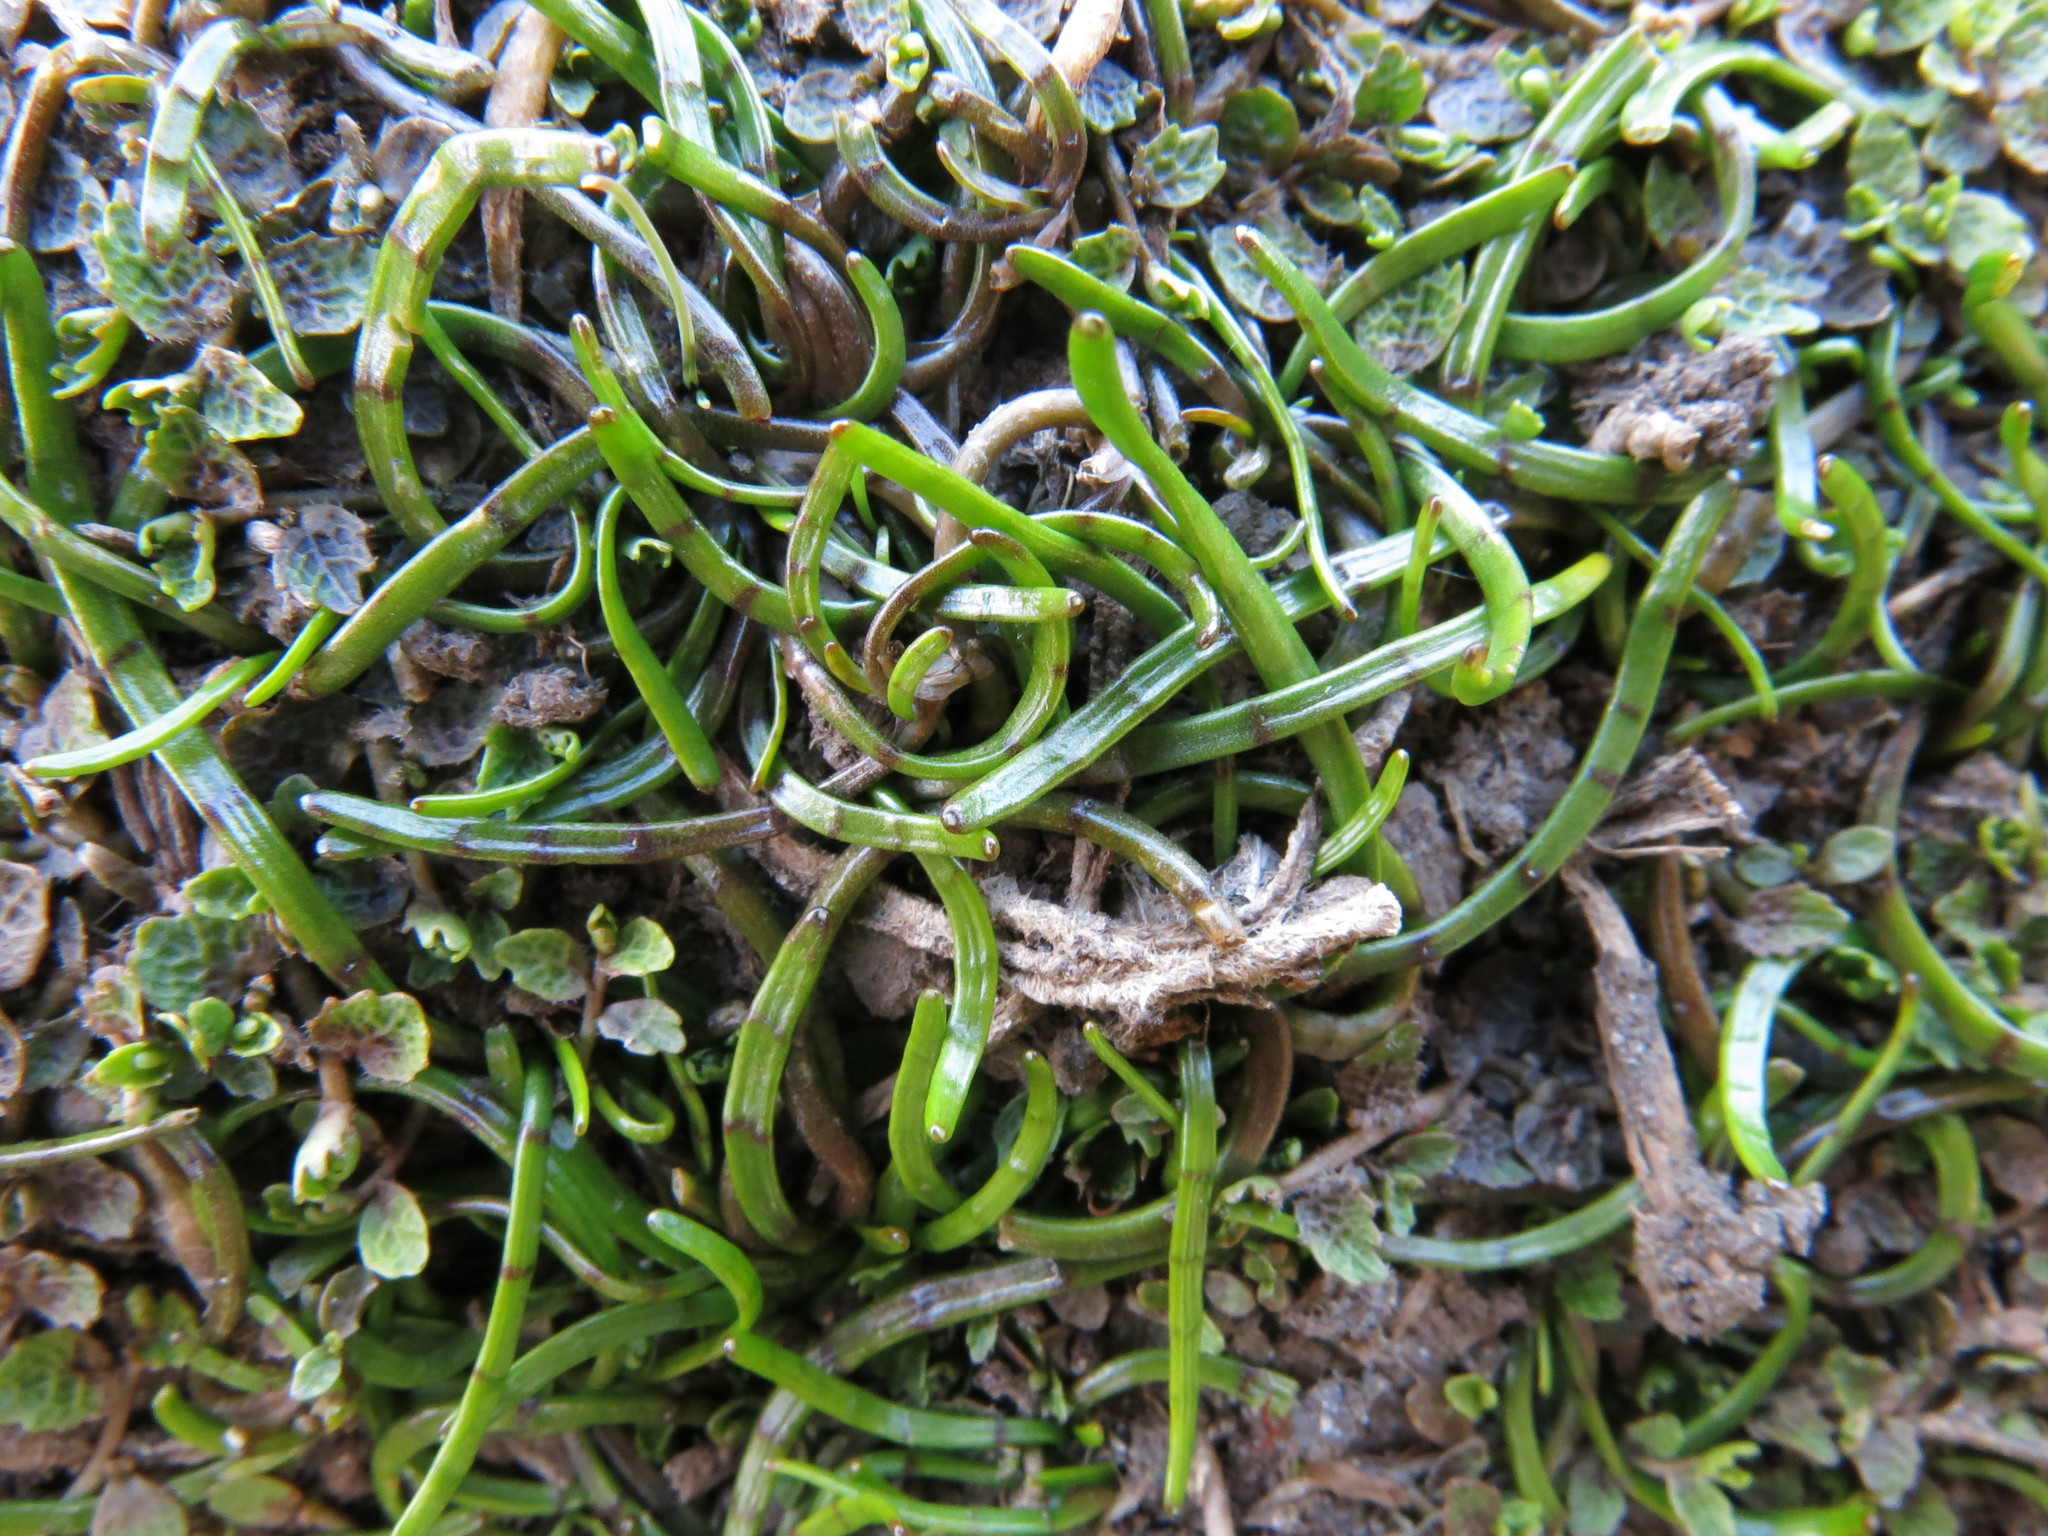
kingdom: Plantae
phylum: Tracheophyta
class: Magnoliopsida
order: Apiales
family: Apiaceae
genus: Lilaeopsis
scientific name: Lilaeopsis novae-zelandiae
